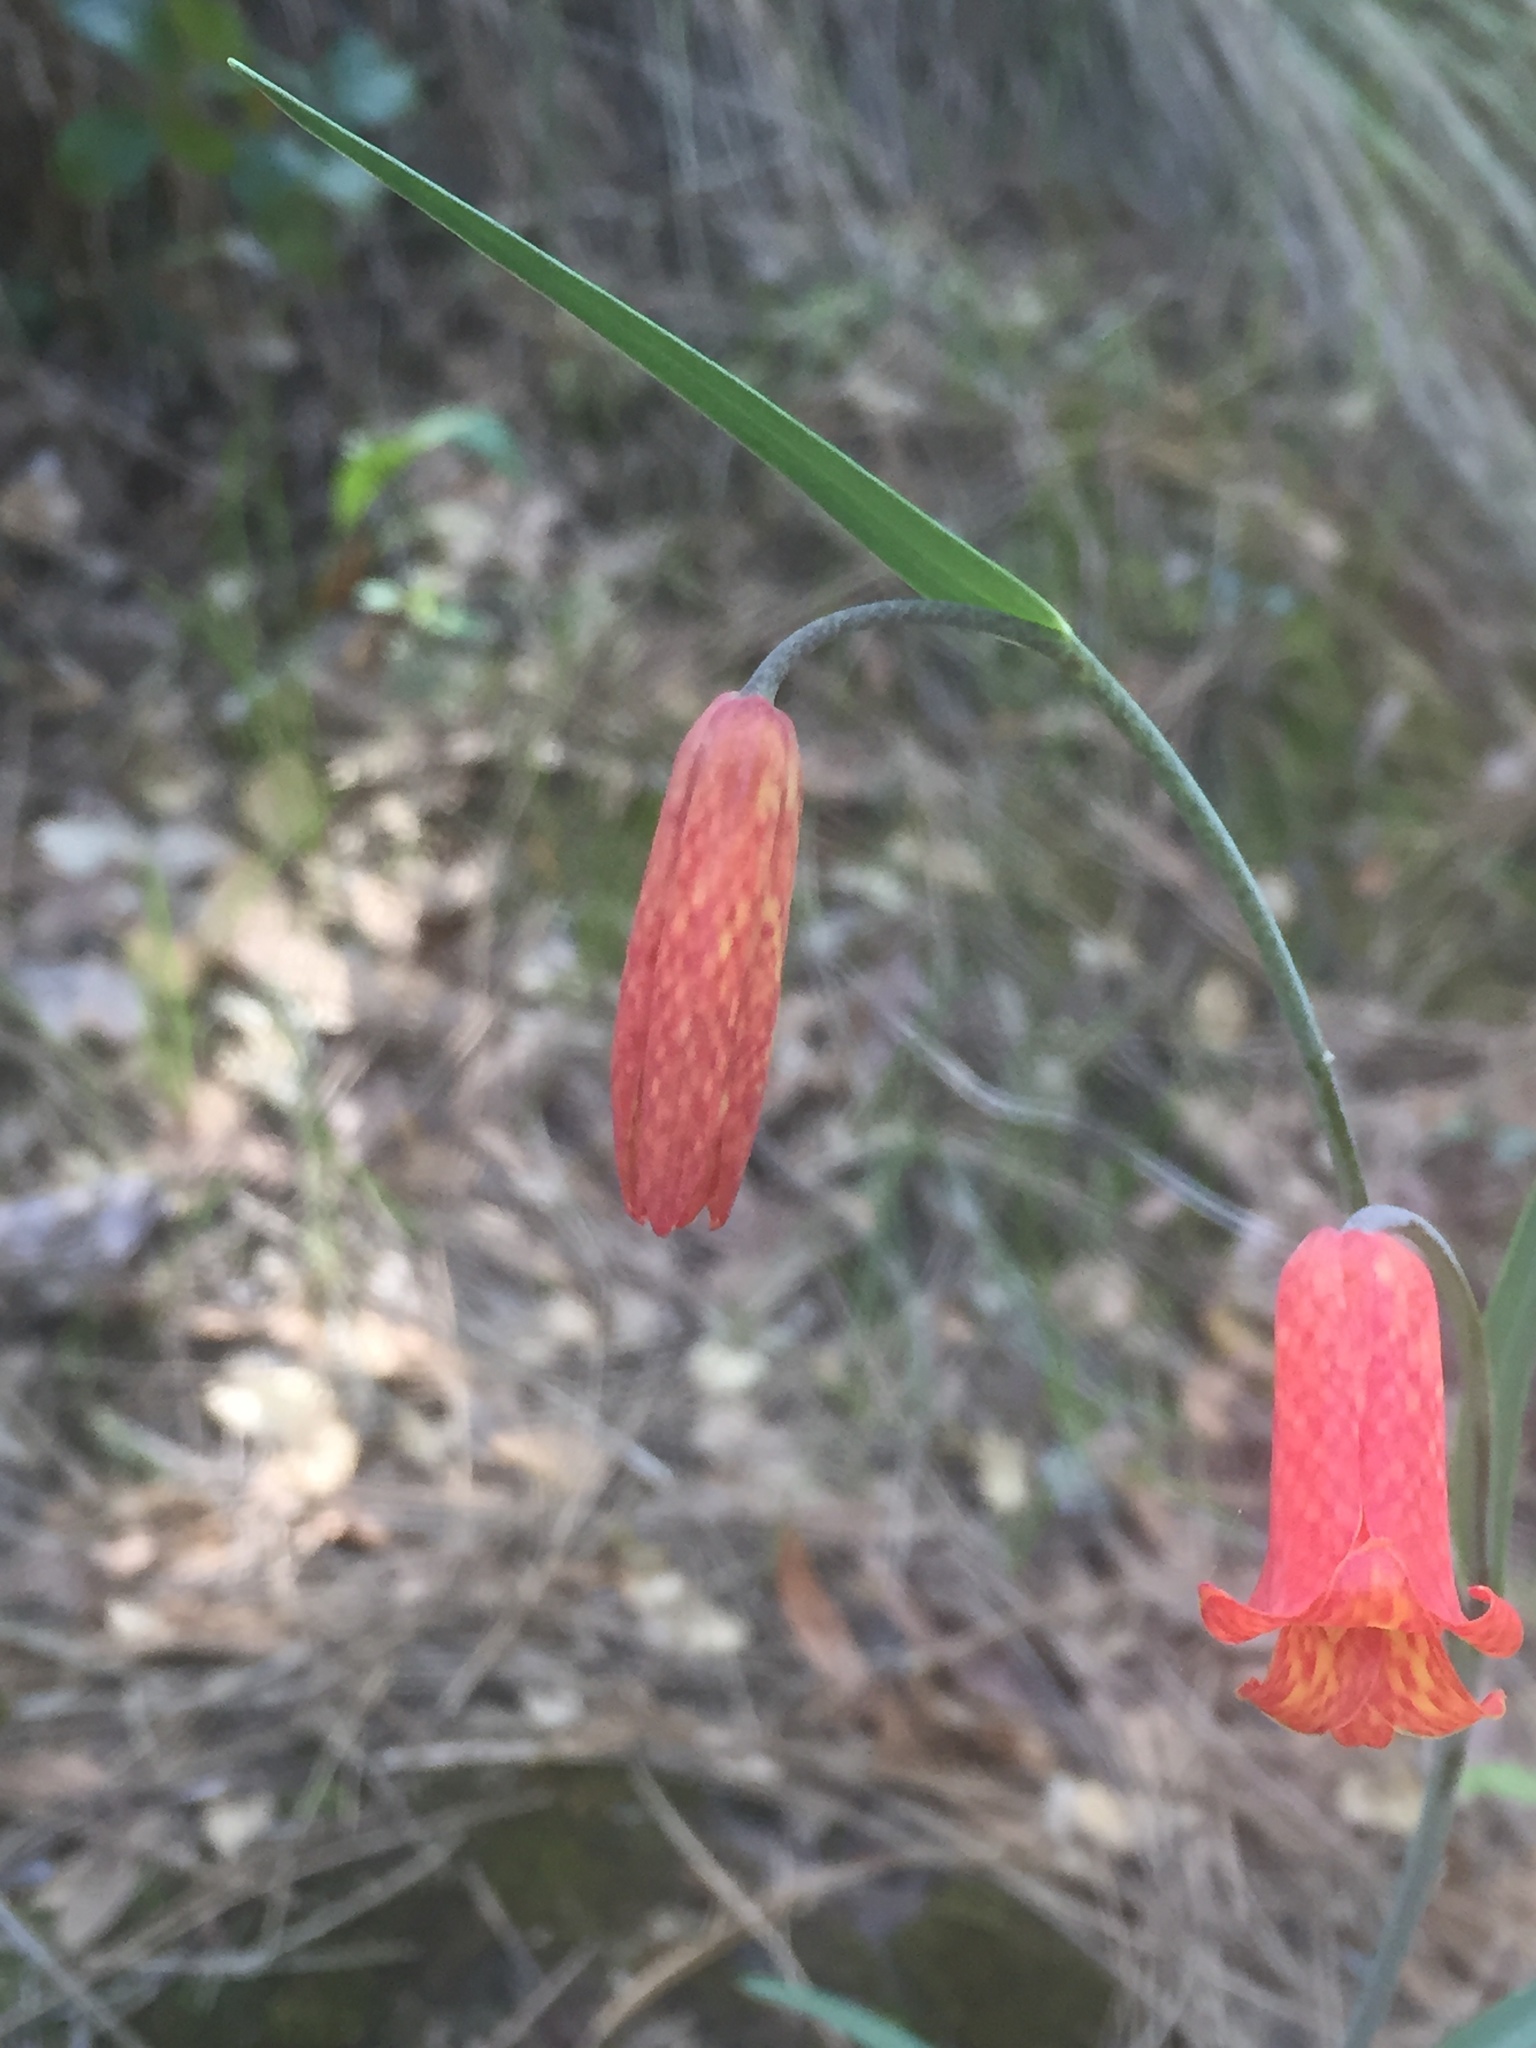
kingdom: Plantae
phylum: Tracheophyta
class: Liliopsida
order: Liliales
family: Liliaceae
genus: Fritillaria
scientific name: Fritillaria recurva
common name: Scarlet fritillary
